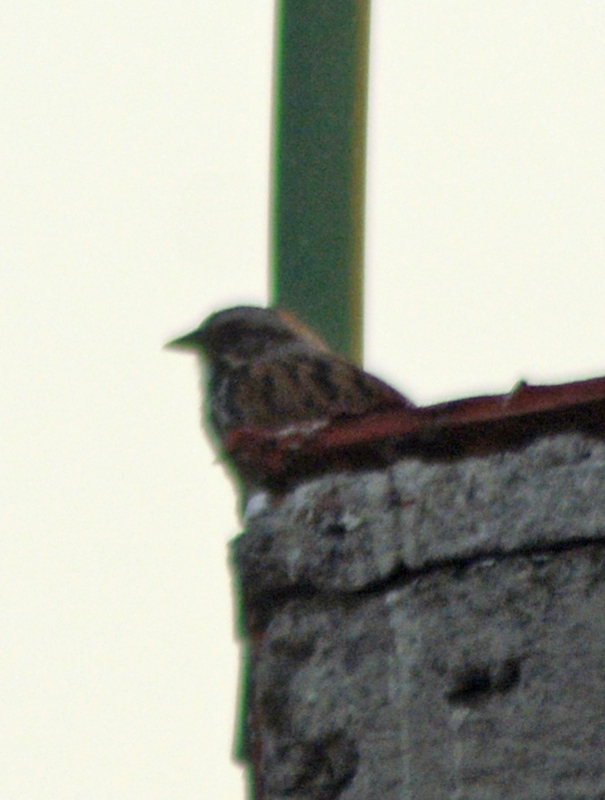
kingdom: Animalia
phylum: Chordata
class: Aves
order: Passeriformes
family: Passerellidae
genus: Melospiza
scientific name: Melospiza melodia
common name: Song sparrow
